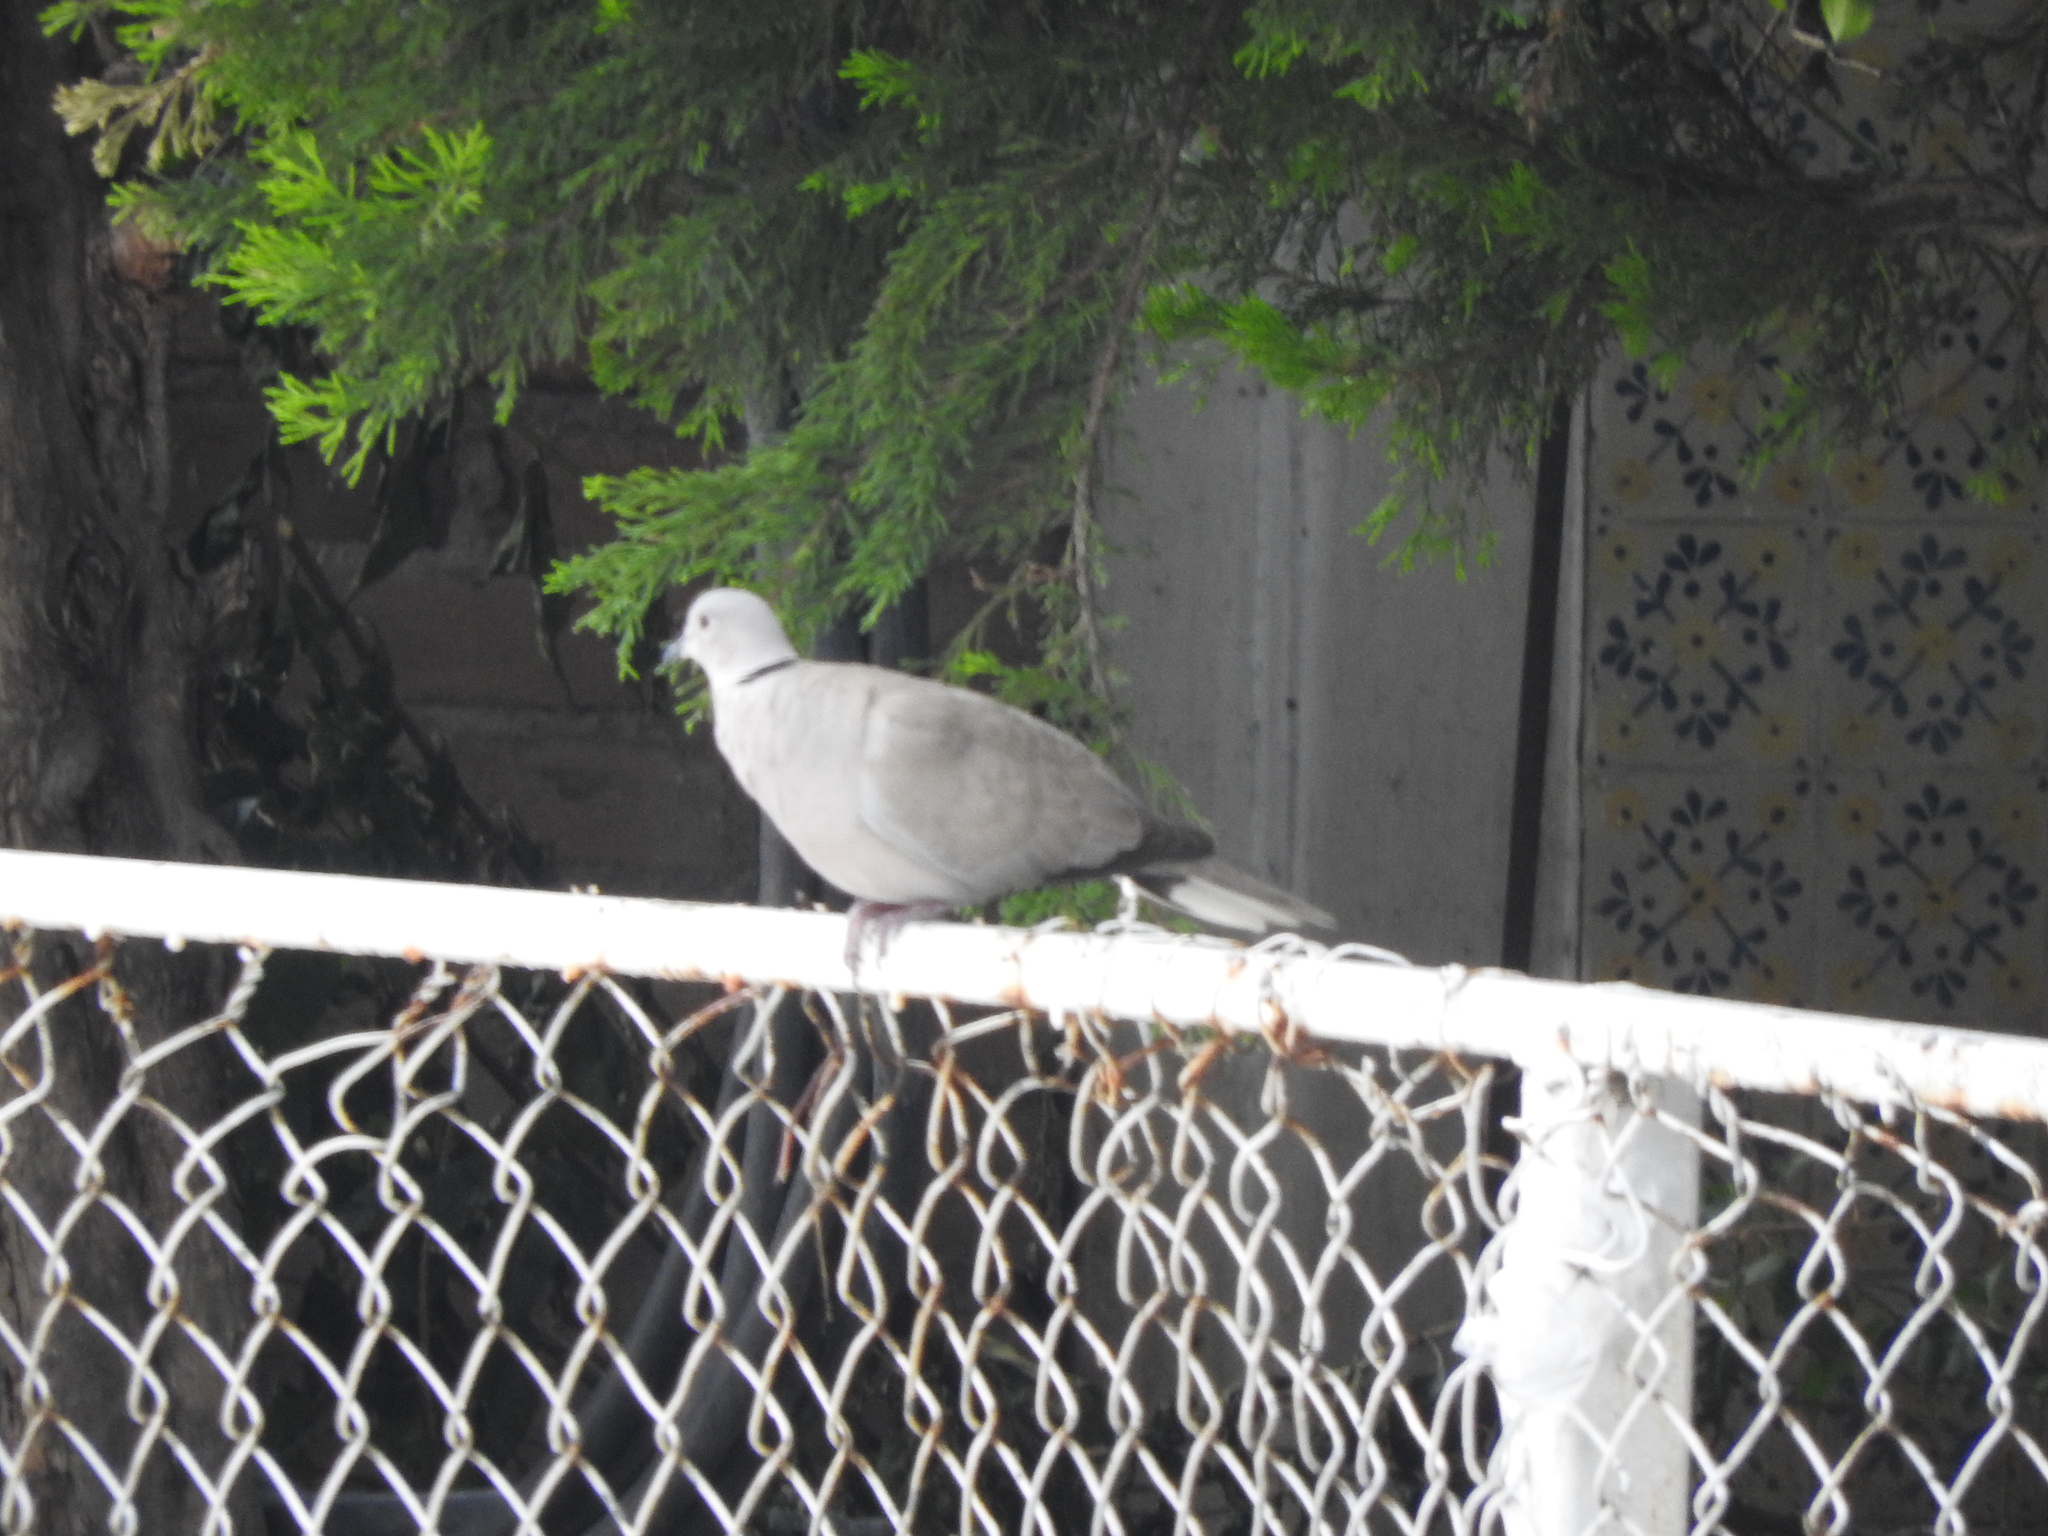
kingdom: Animalia
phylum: Chordata
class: Aves
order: Columbiformes
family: Columbidae
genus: Streptopelia
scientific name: Streptopelia decaocto
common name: Eurasian collared dove
